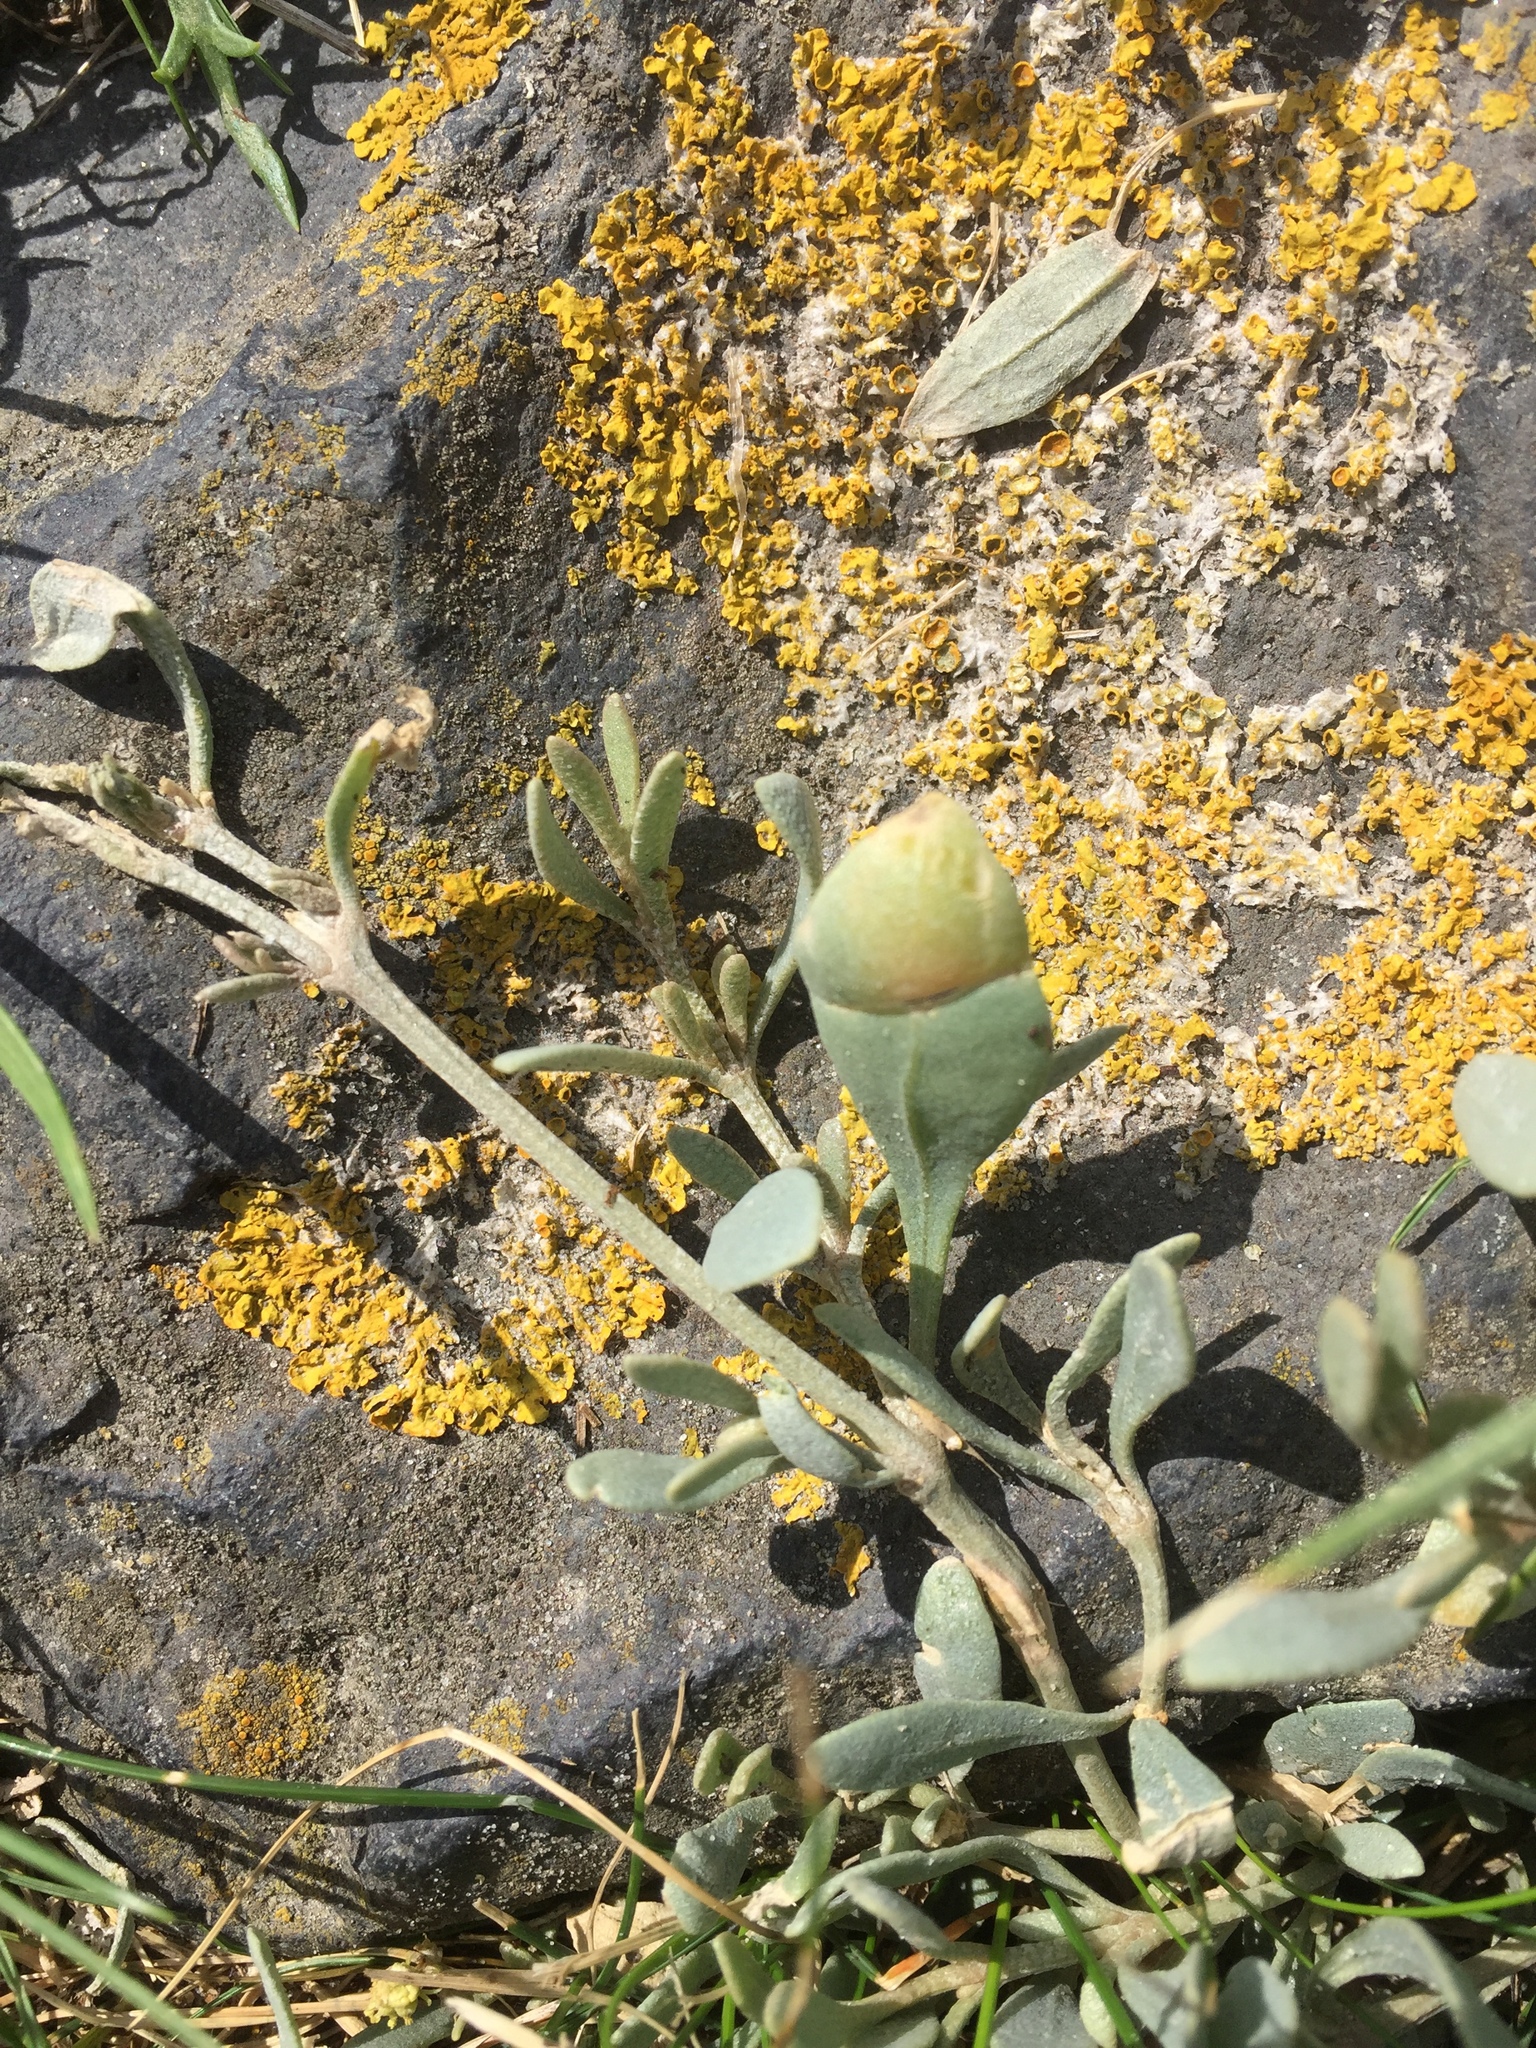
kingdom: Plantae
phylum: Tracheophyta
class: Magnoliopsida
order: Caryophyllales
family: Amaranthaceae
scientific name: Amaranthaceae
